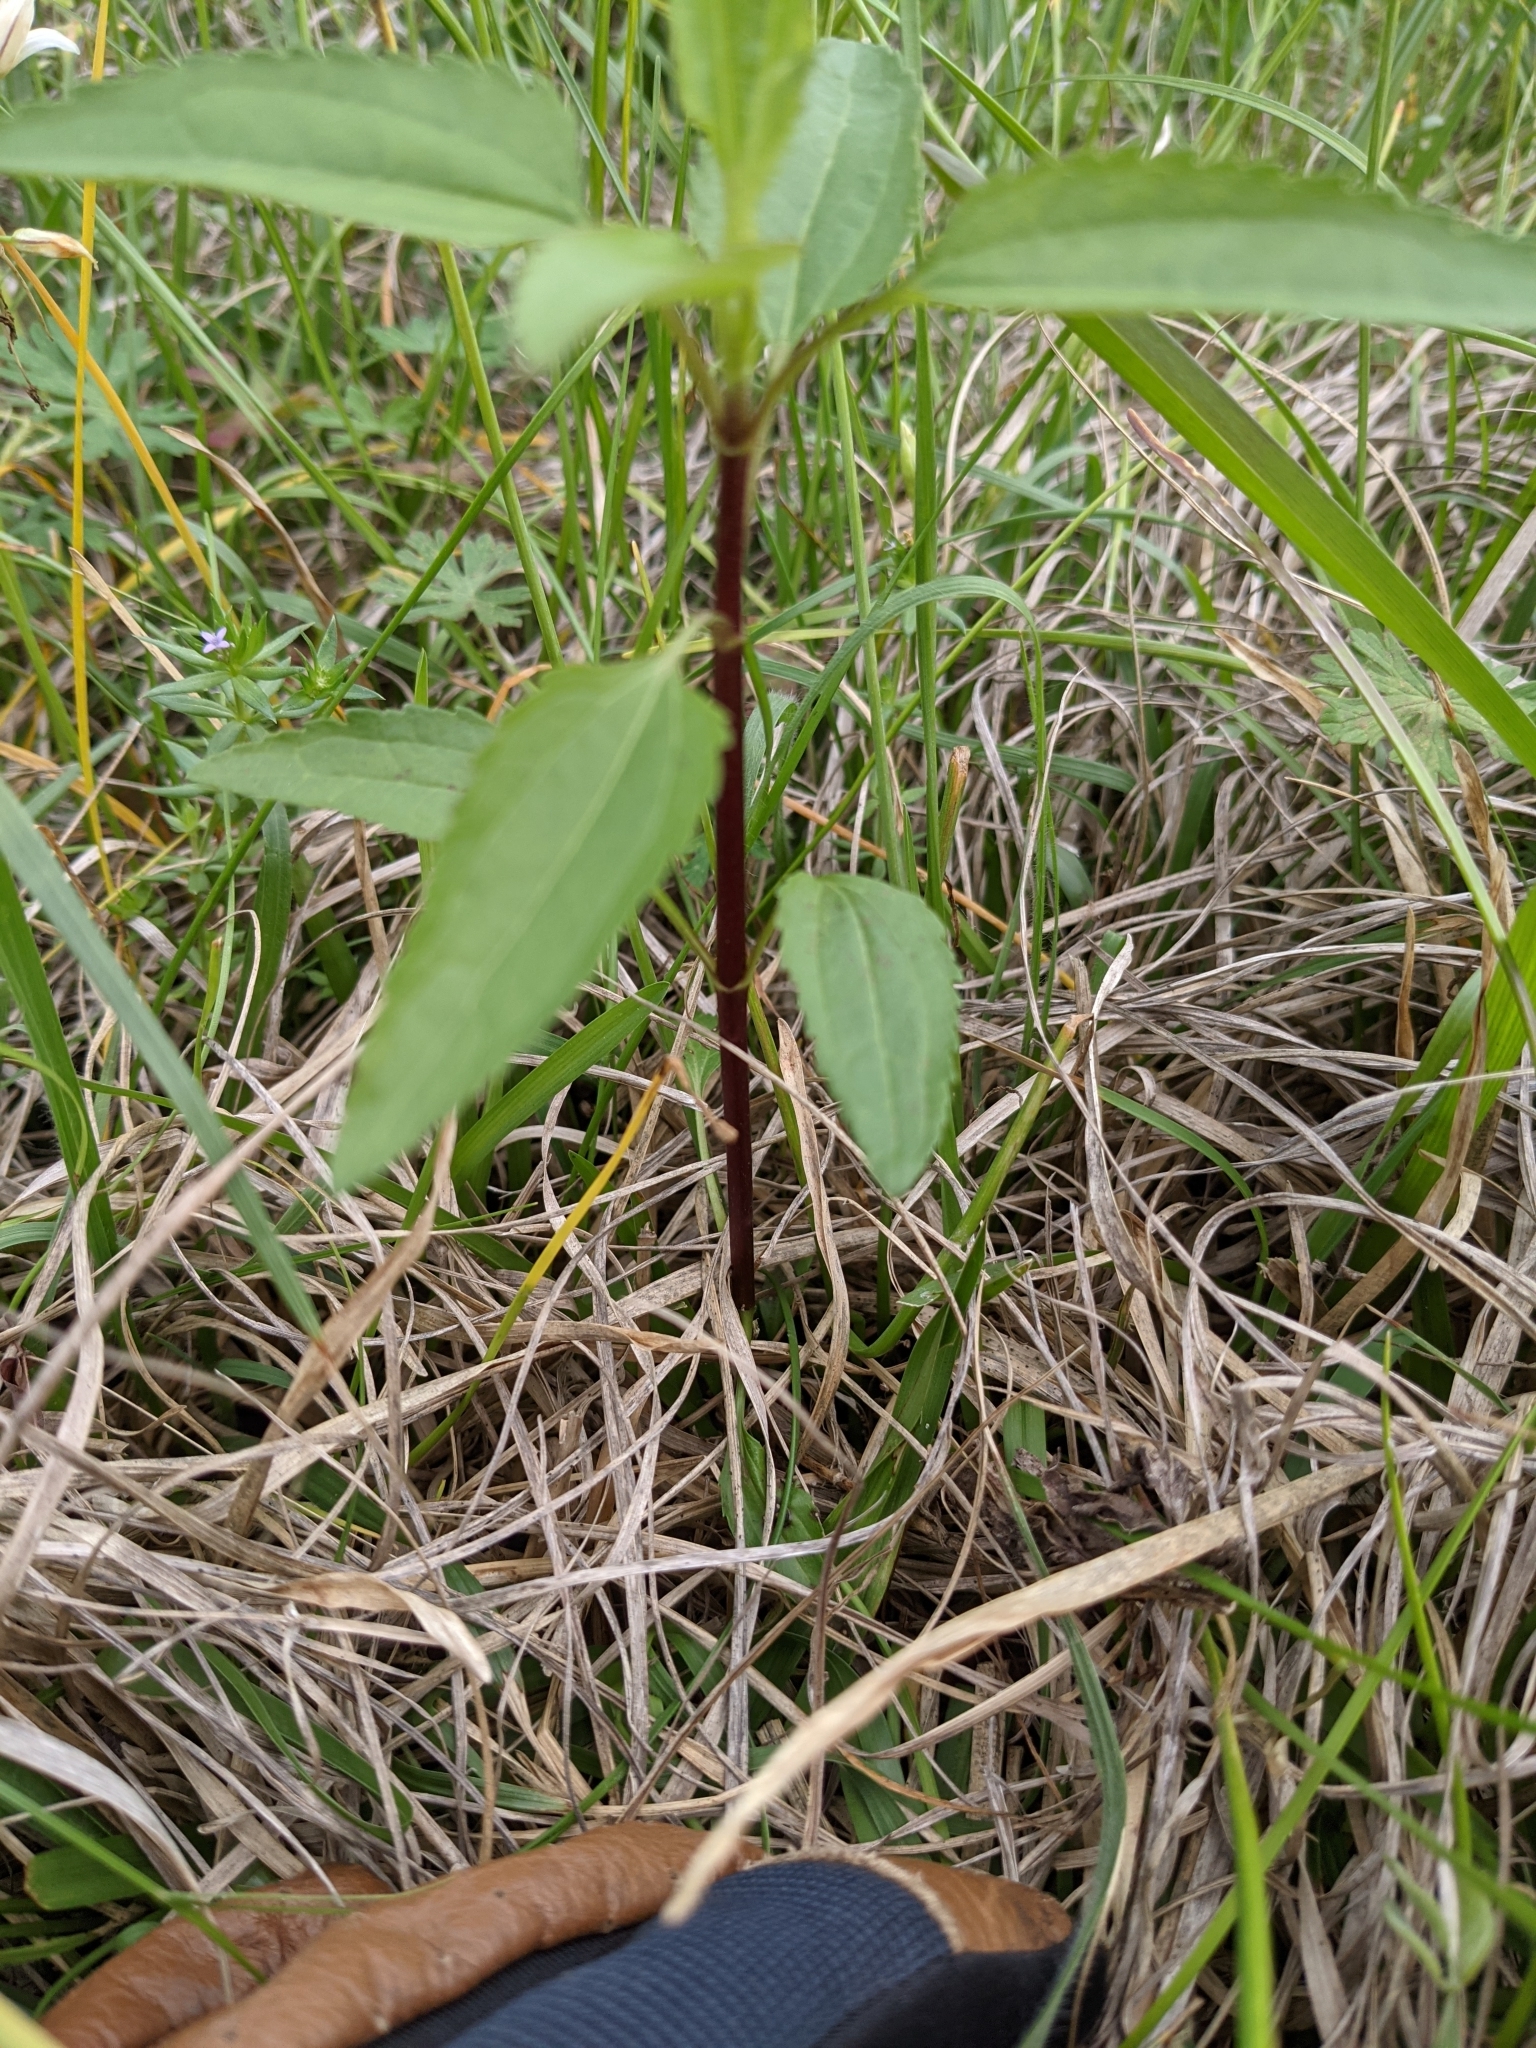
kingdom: Plantae
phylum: Tracheophyta
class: Magnoliopsida
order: Asterales
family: Asteraceae
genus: Eupatorium
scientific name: Eupatorium serotinum
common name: Late boneset
